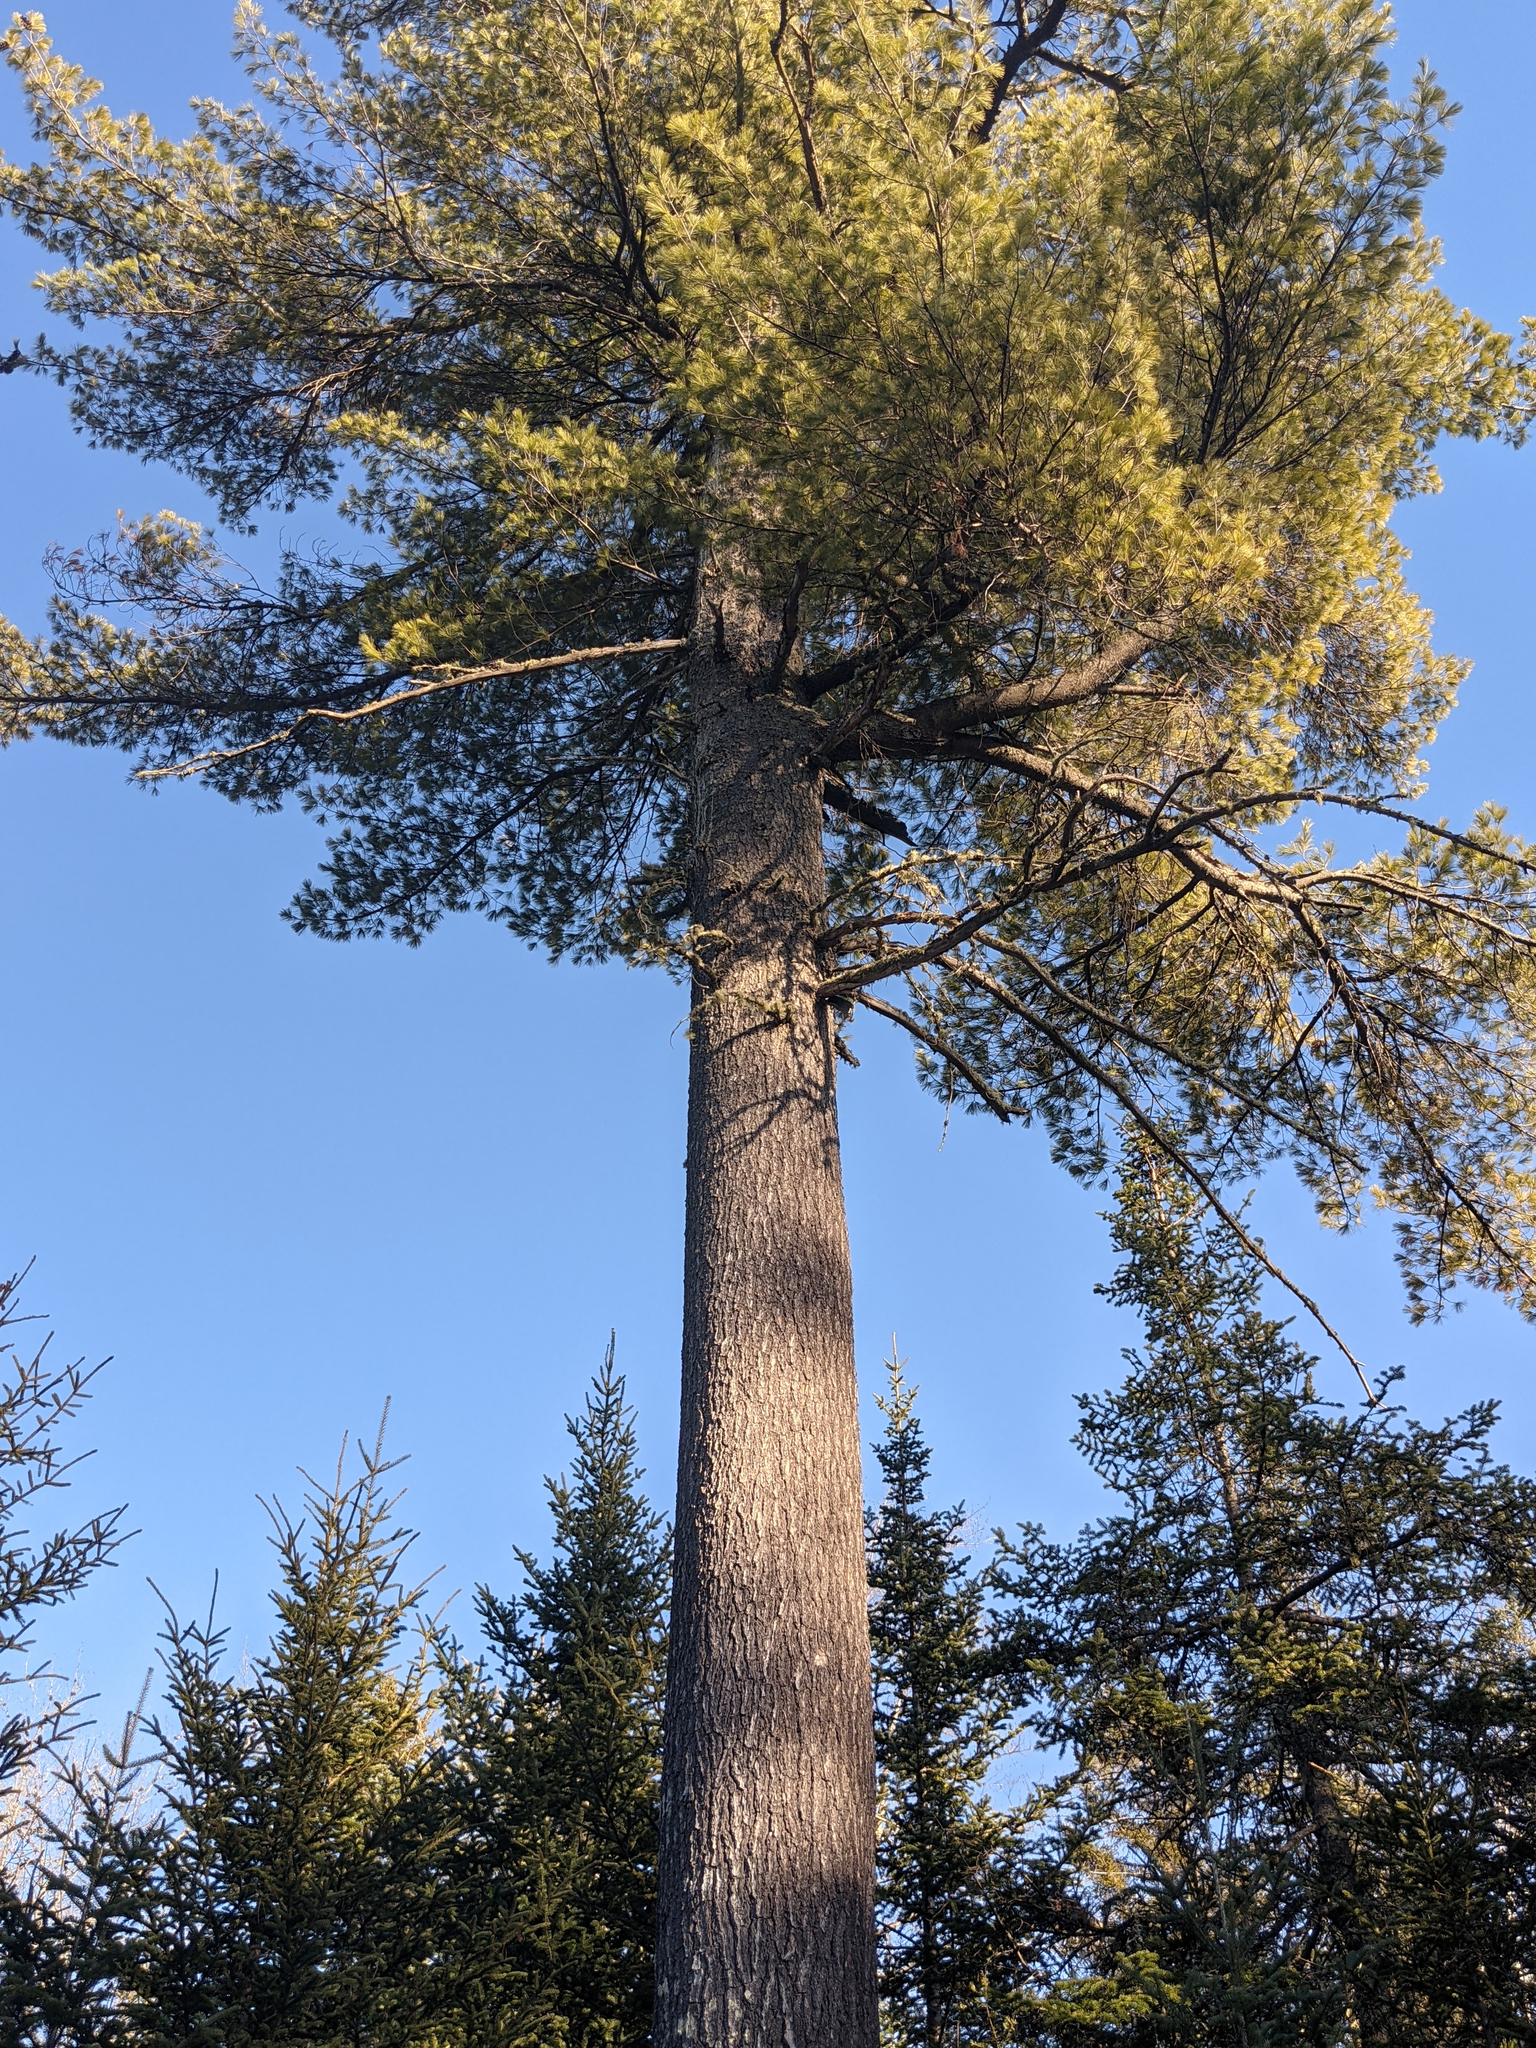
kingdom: Plantae
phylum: Tracheophyta
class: Pinopsida
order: Pinales
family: Pinaceae
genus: Pinus
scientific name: Pinus strobus
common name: Weymouth pine
